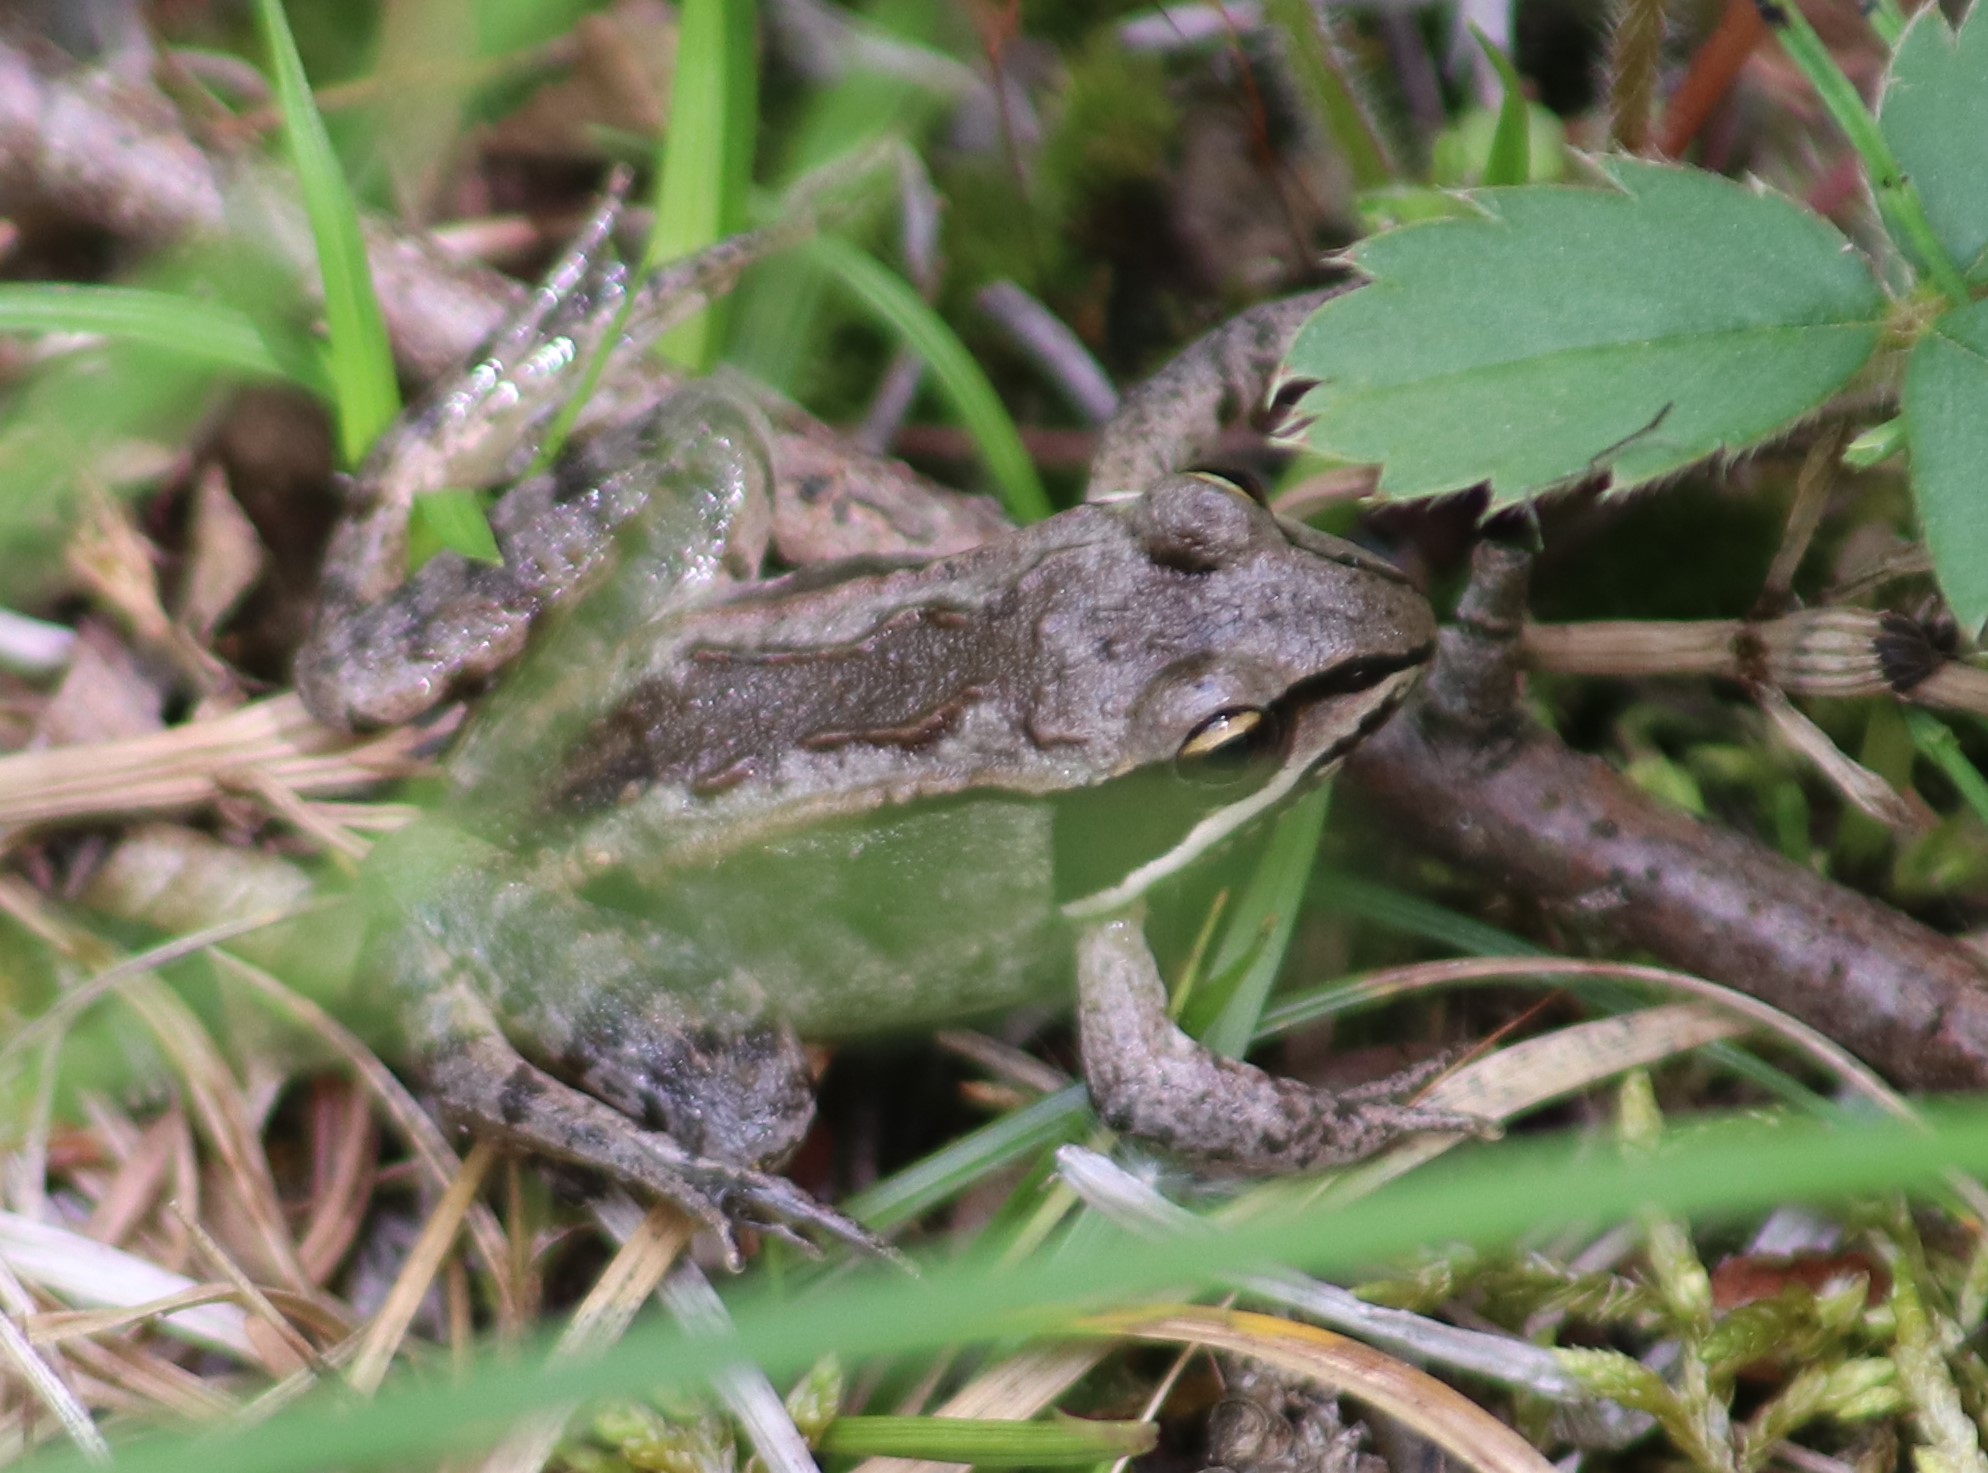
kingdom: Animalia
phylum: Chordata
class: Amphibia
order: Anura
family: Ranidae
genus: Lithobates
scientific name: Lithobates sylvaticus
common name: Wood frog
